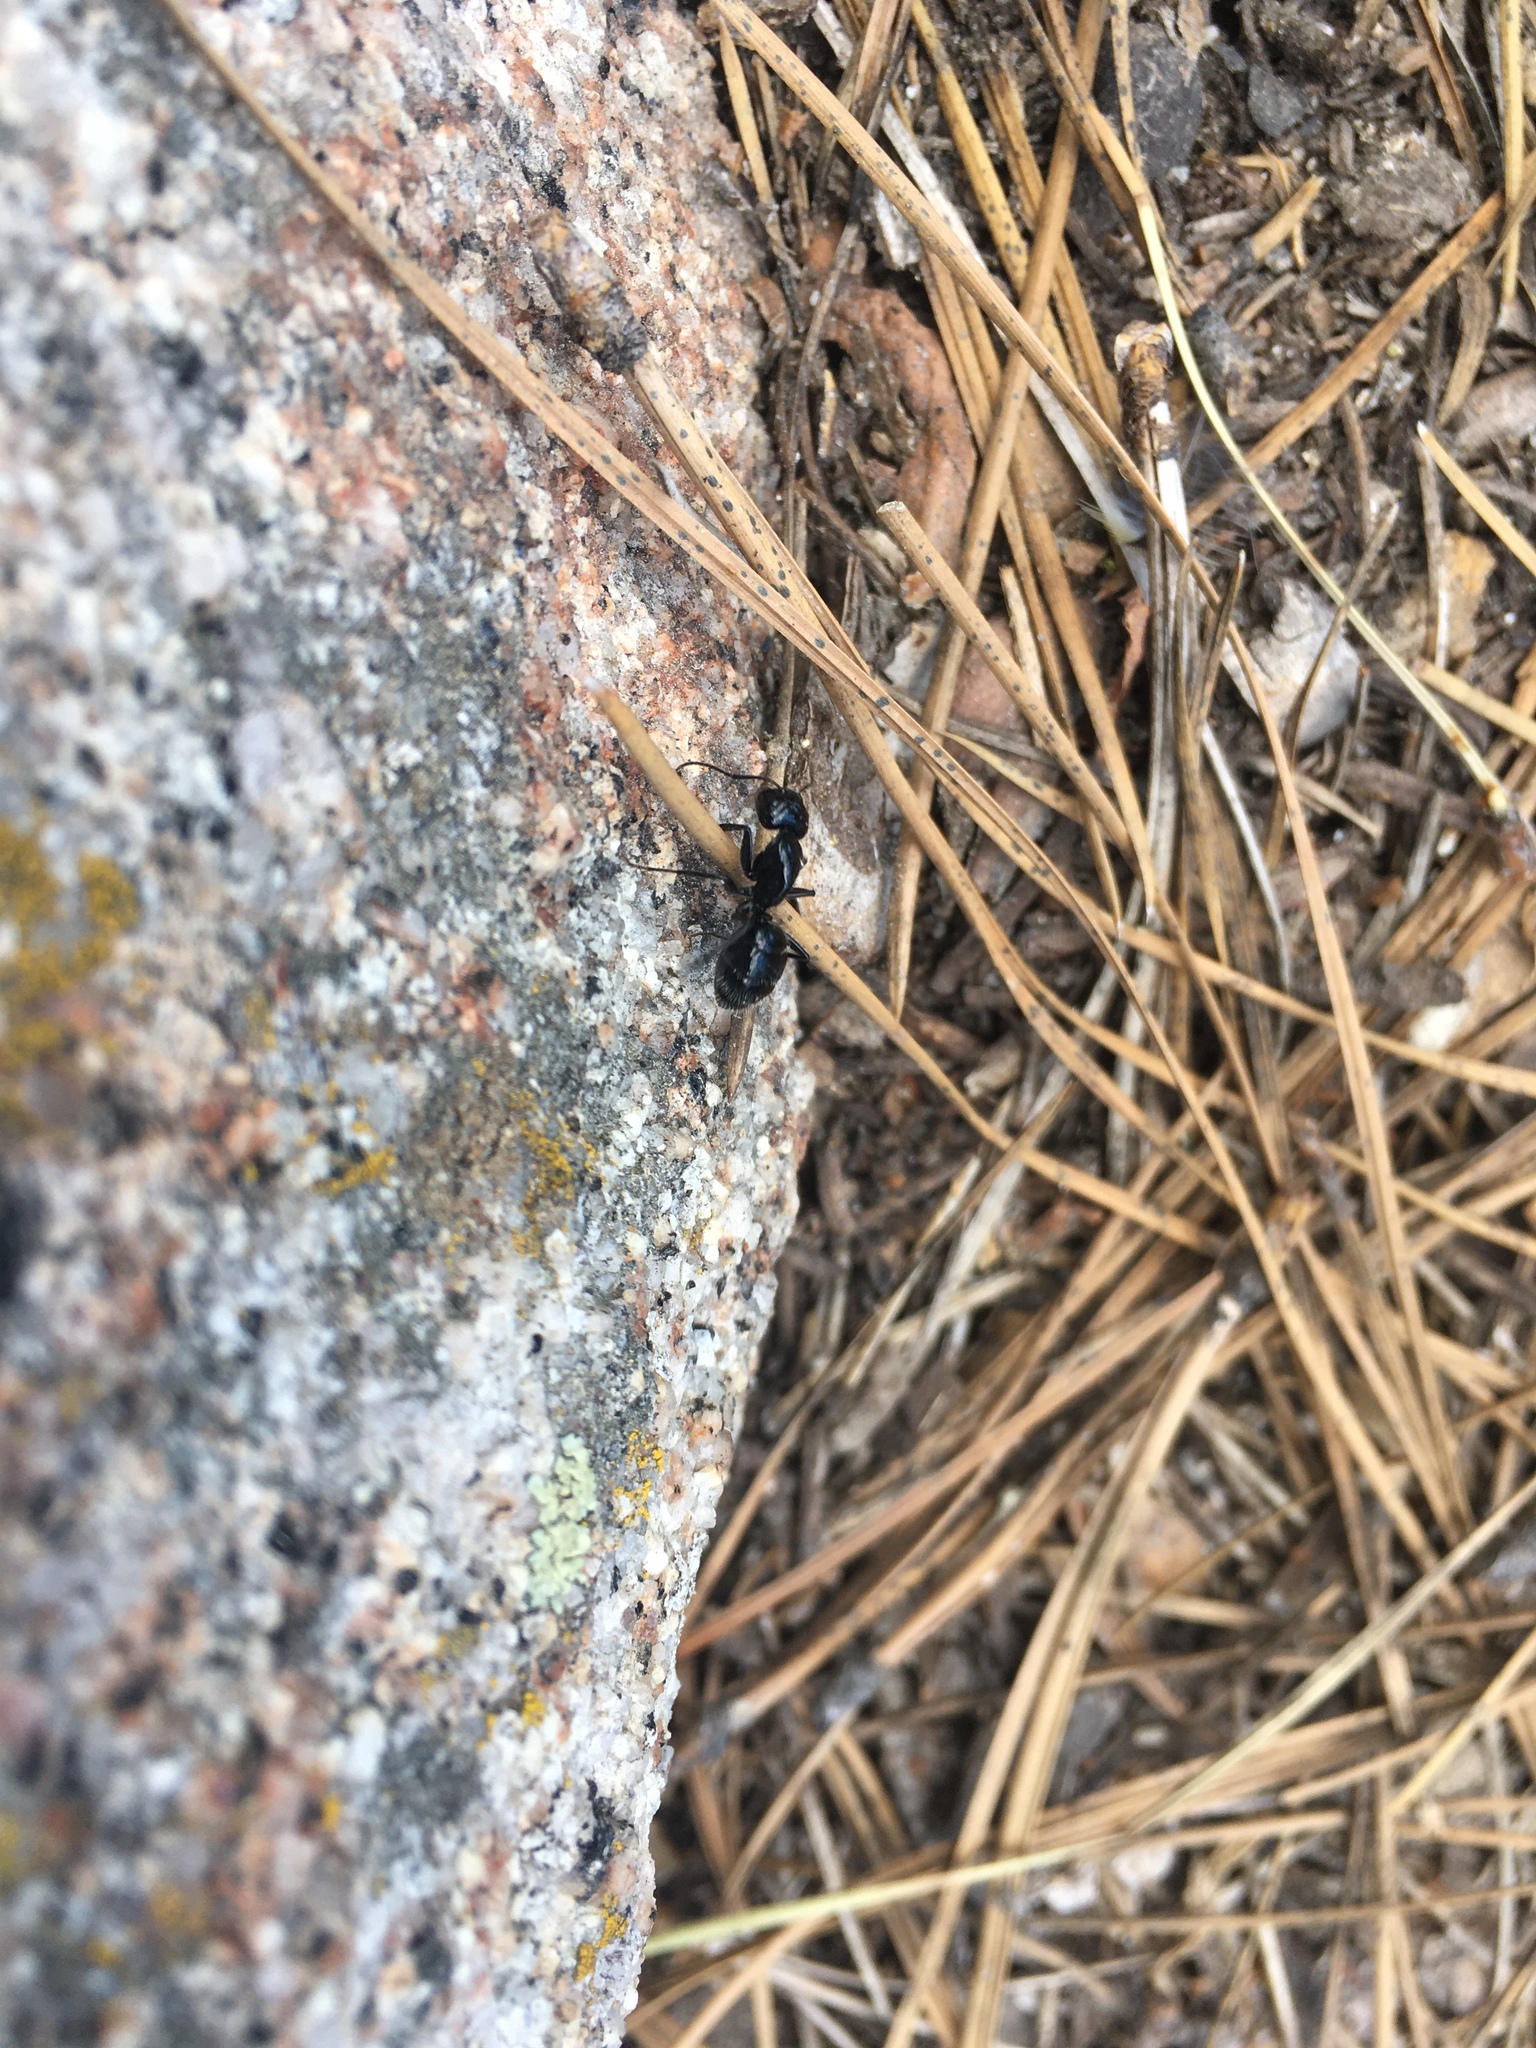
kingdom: Animalia
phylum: Arthropoda
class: Insecta
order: Hymenoptera
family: Formicidae
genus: Camponotus
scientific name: Camponotus
